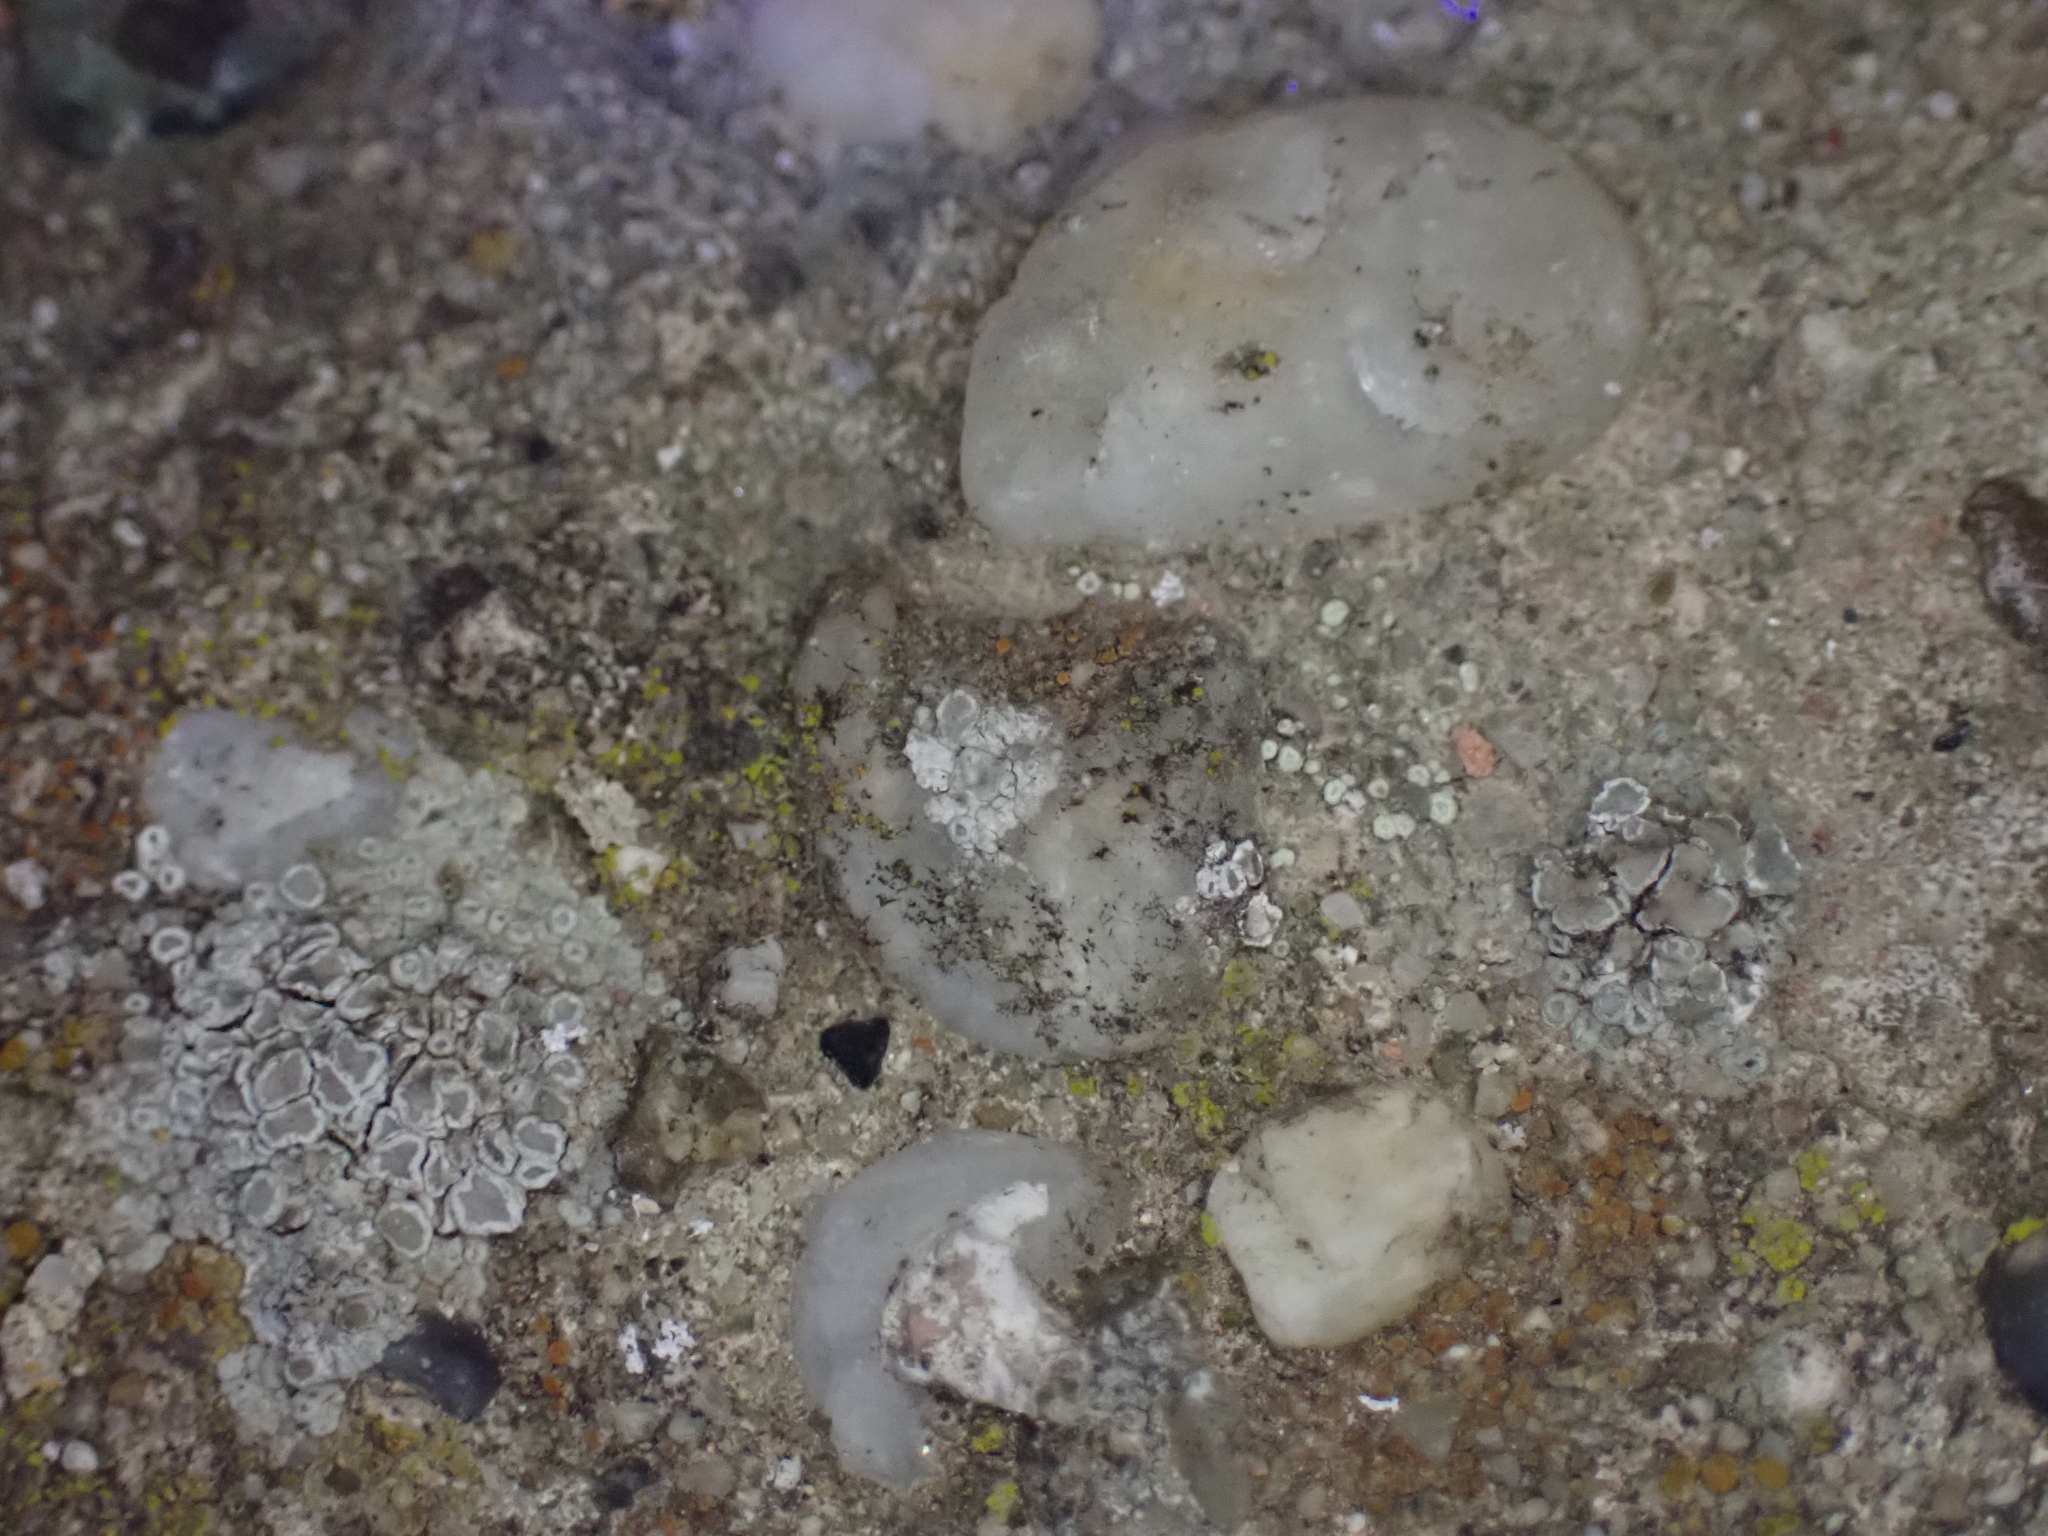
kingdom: Fungi
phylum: Ascomycota
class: Lecanoromycetes
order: Lecanorales
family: Lecanoraceae
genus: Polyozosia
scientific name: Polyozosia semipallida
